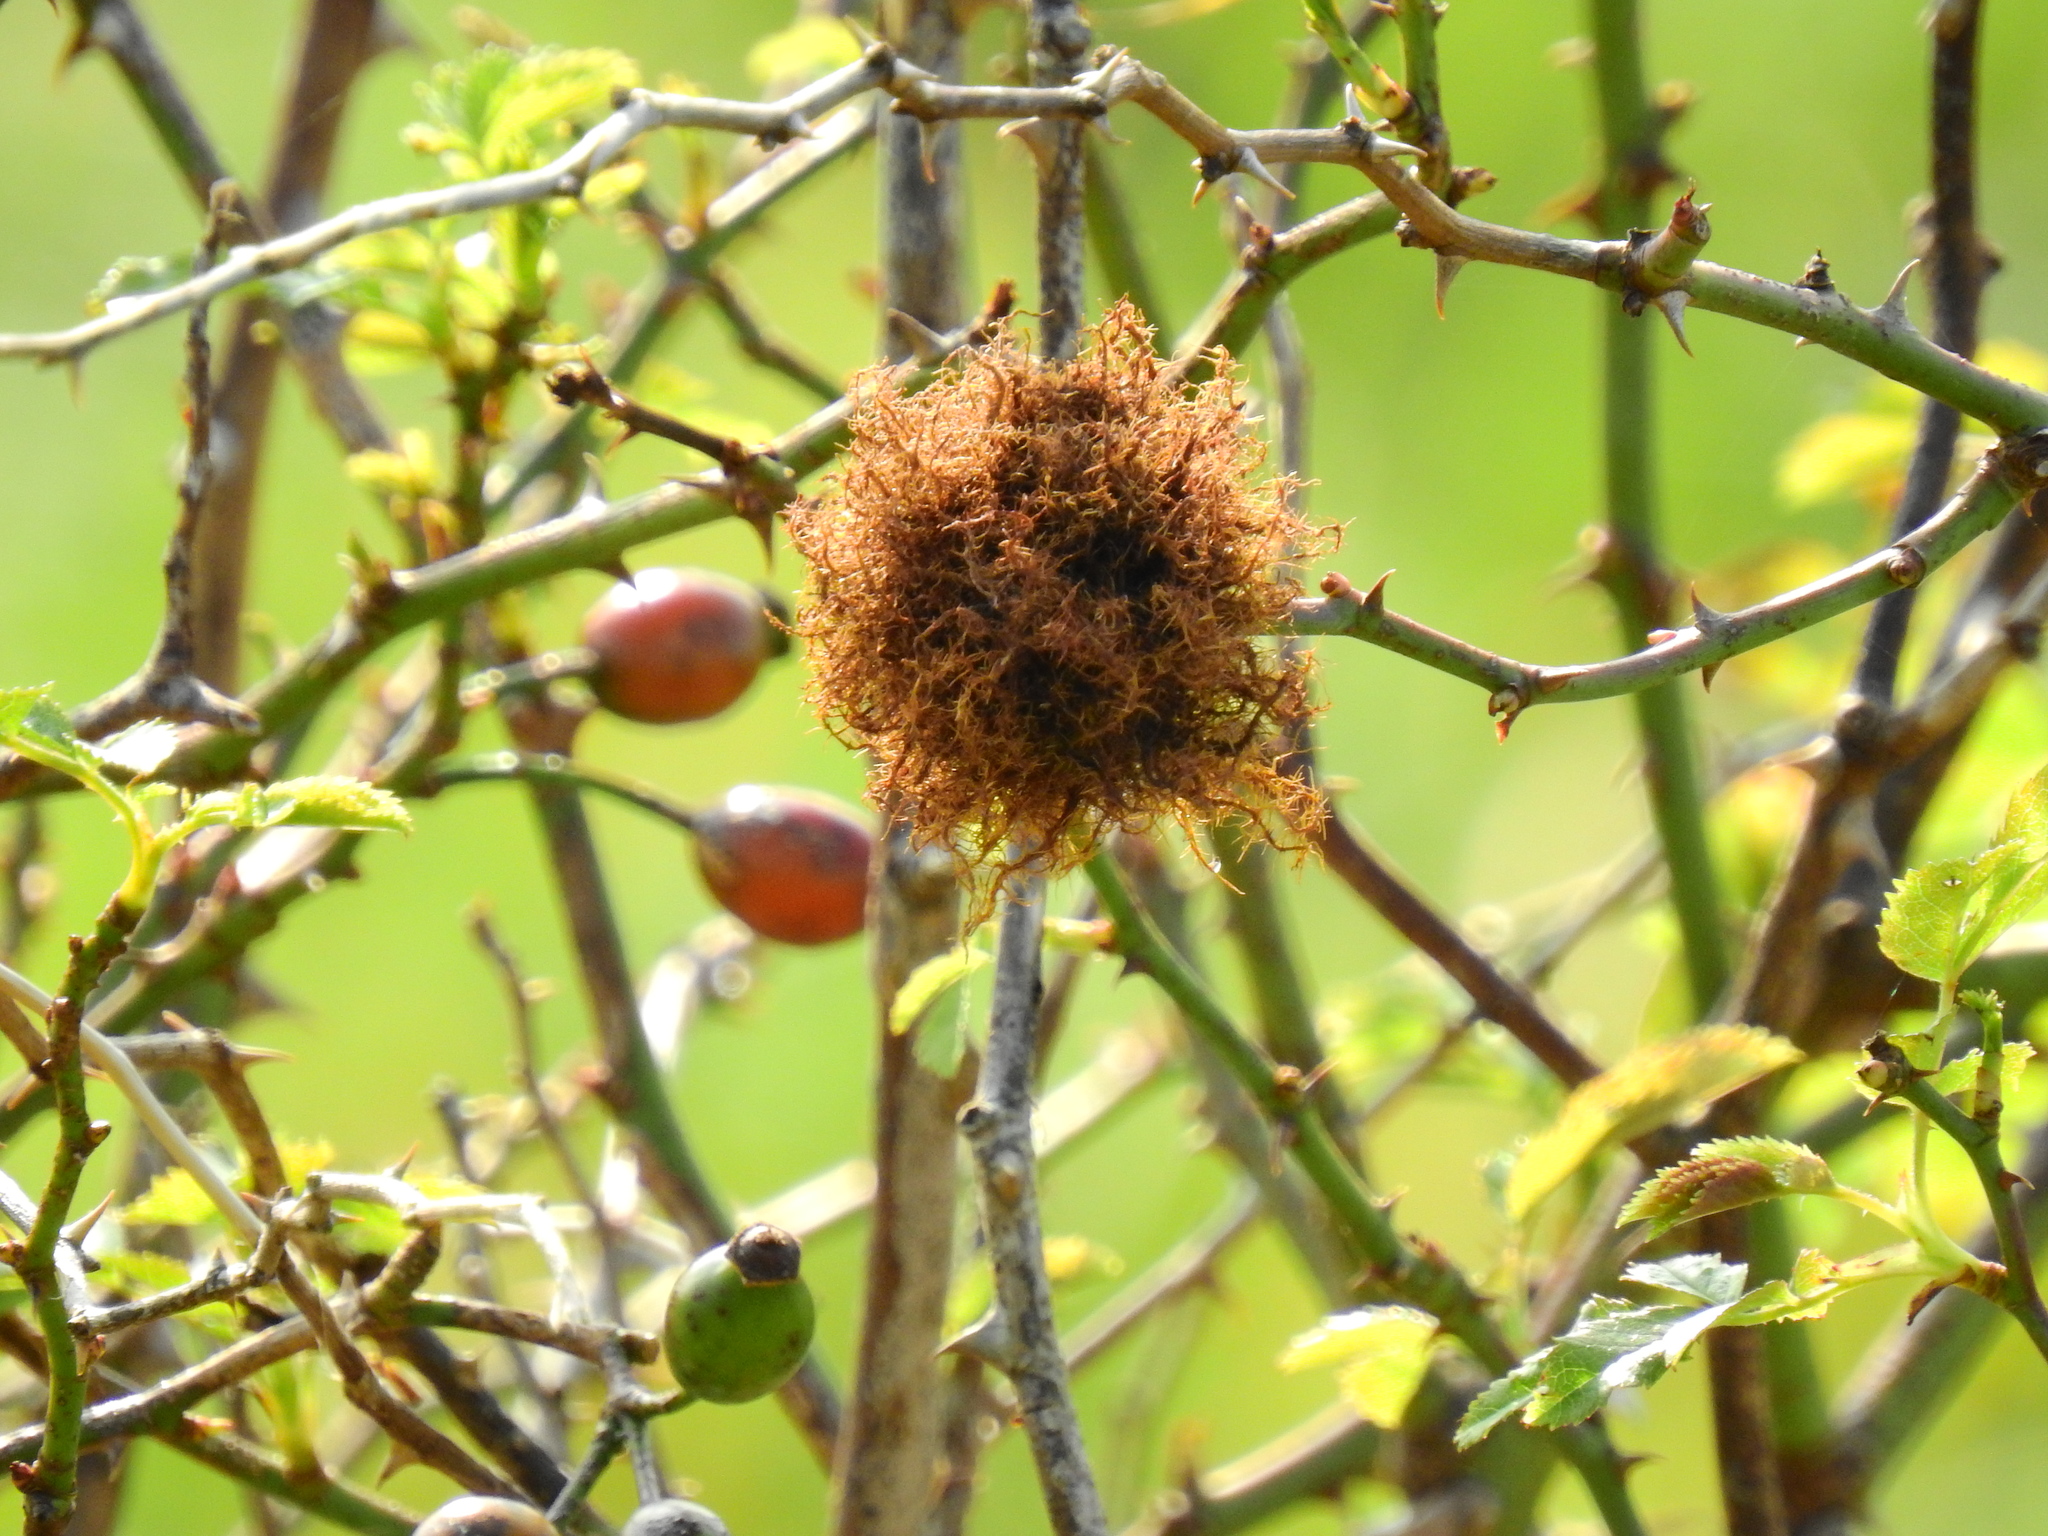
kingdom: Animalia
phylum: Arthropoda
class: Insecta
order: Hymenoptera
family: Cynipidae
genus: Diplolepis
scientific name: Diplolepis rosae
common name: Bedeguar gall
